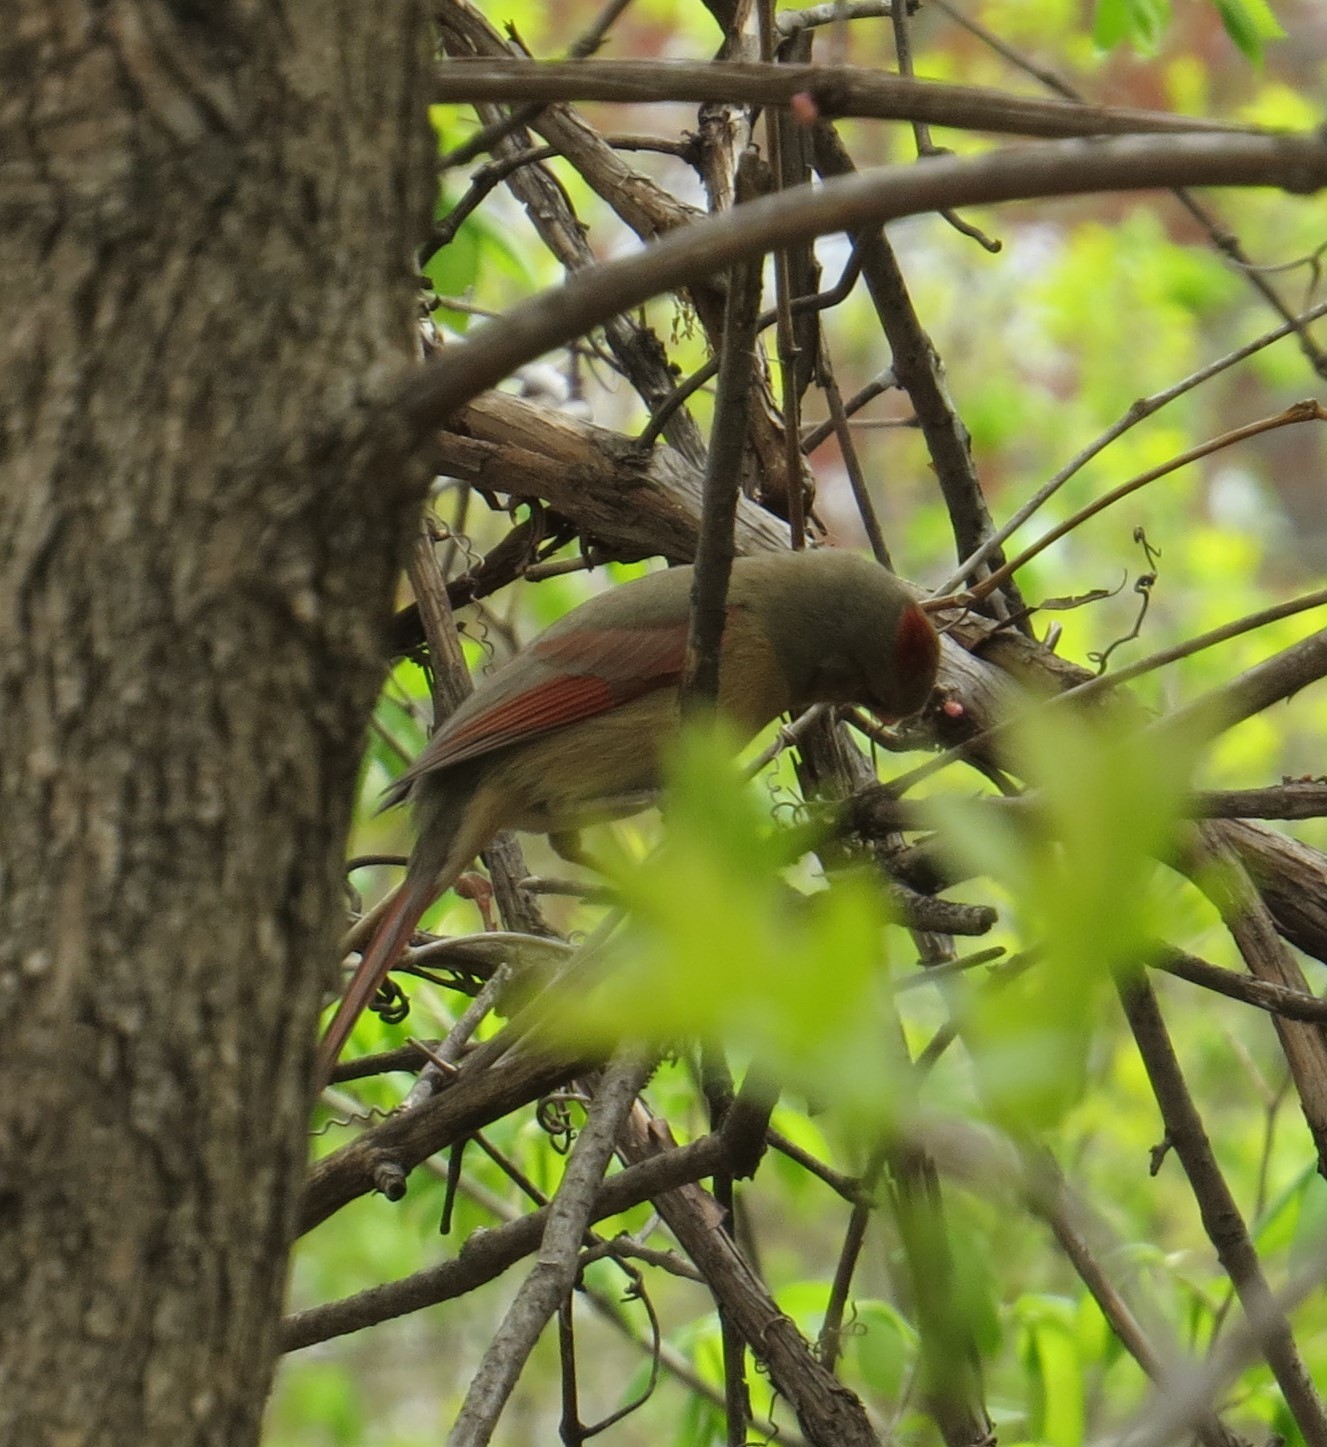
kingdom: Animalia
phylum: Chordata
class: Aves
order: Passeriformes
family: Cardinalidae
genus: Cardinalis
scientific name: Cardinalis cardinalis
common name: Northern cardinal
